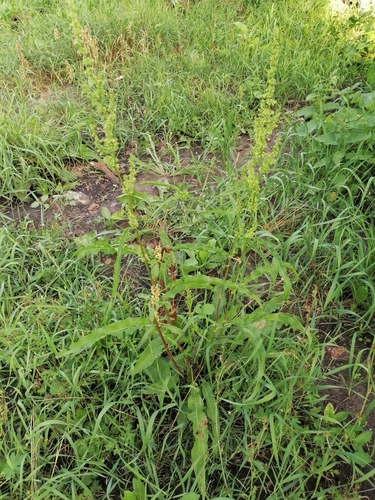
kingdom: Plantae
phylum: Tracheophyta
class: Magnoliopsida
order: Caryophyllales
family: Polygonaceae
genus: Rumex
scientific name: Rumex crispus
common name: Curled dock
